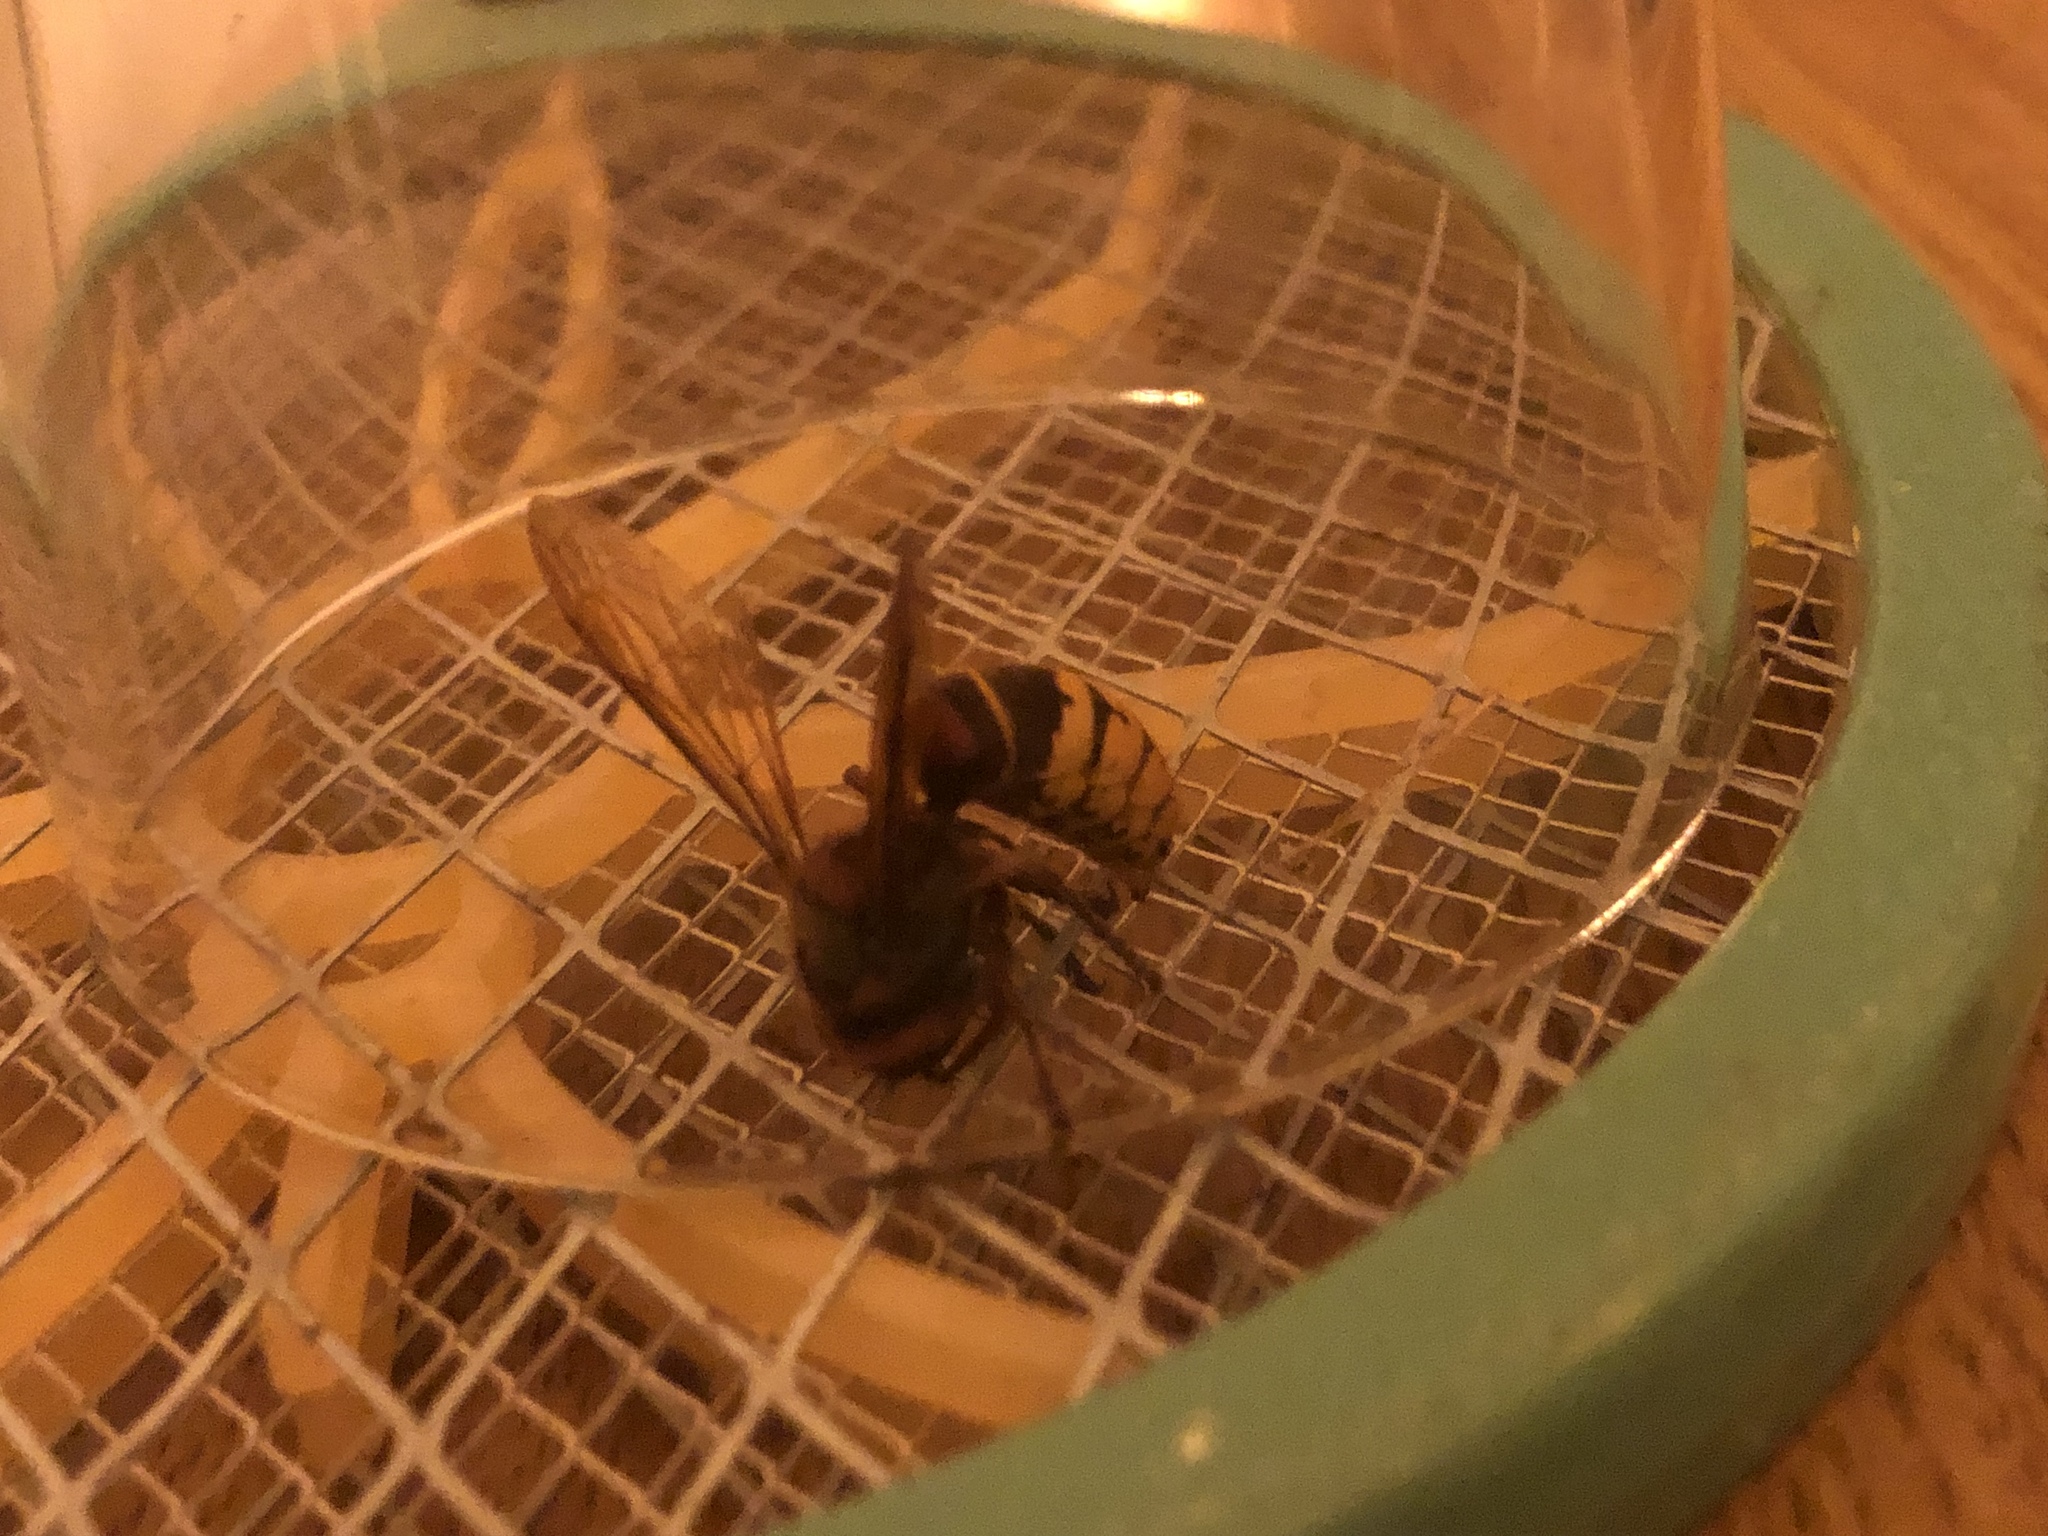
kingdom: Animalia
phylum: Arthropoda
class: Insecta
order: Hymenoptera
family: Vespidae
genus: Vespa
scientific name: Vespa crabro
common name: Hornet
